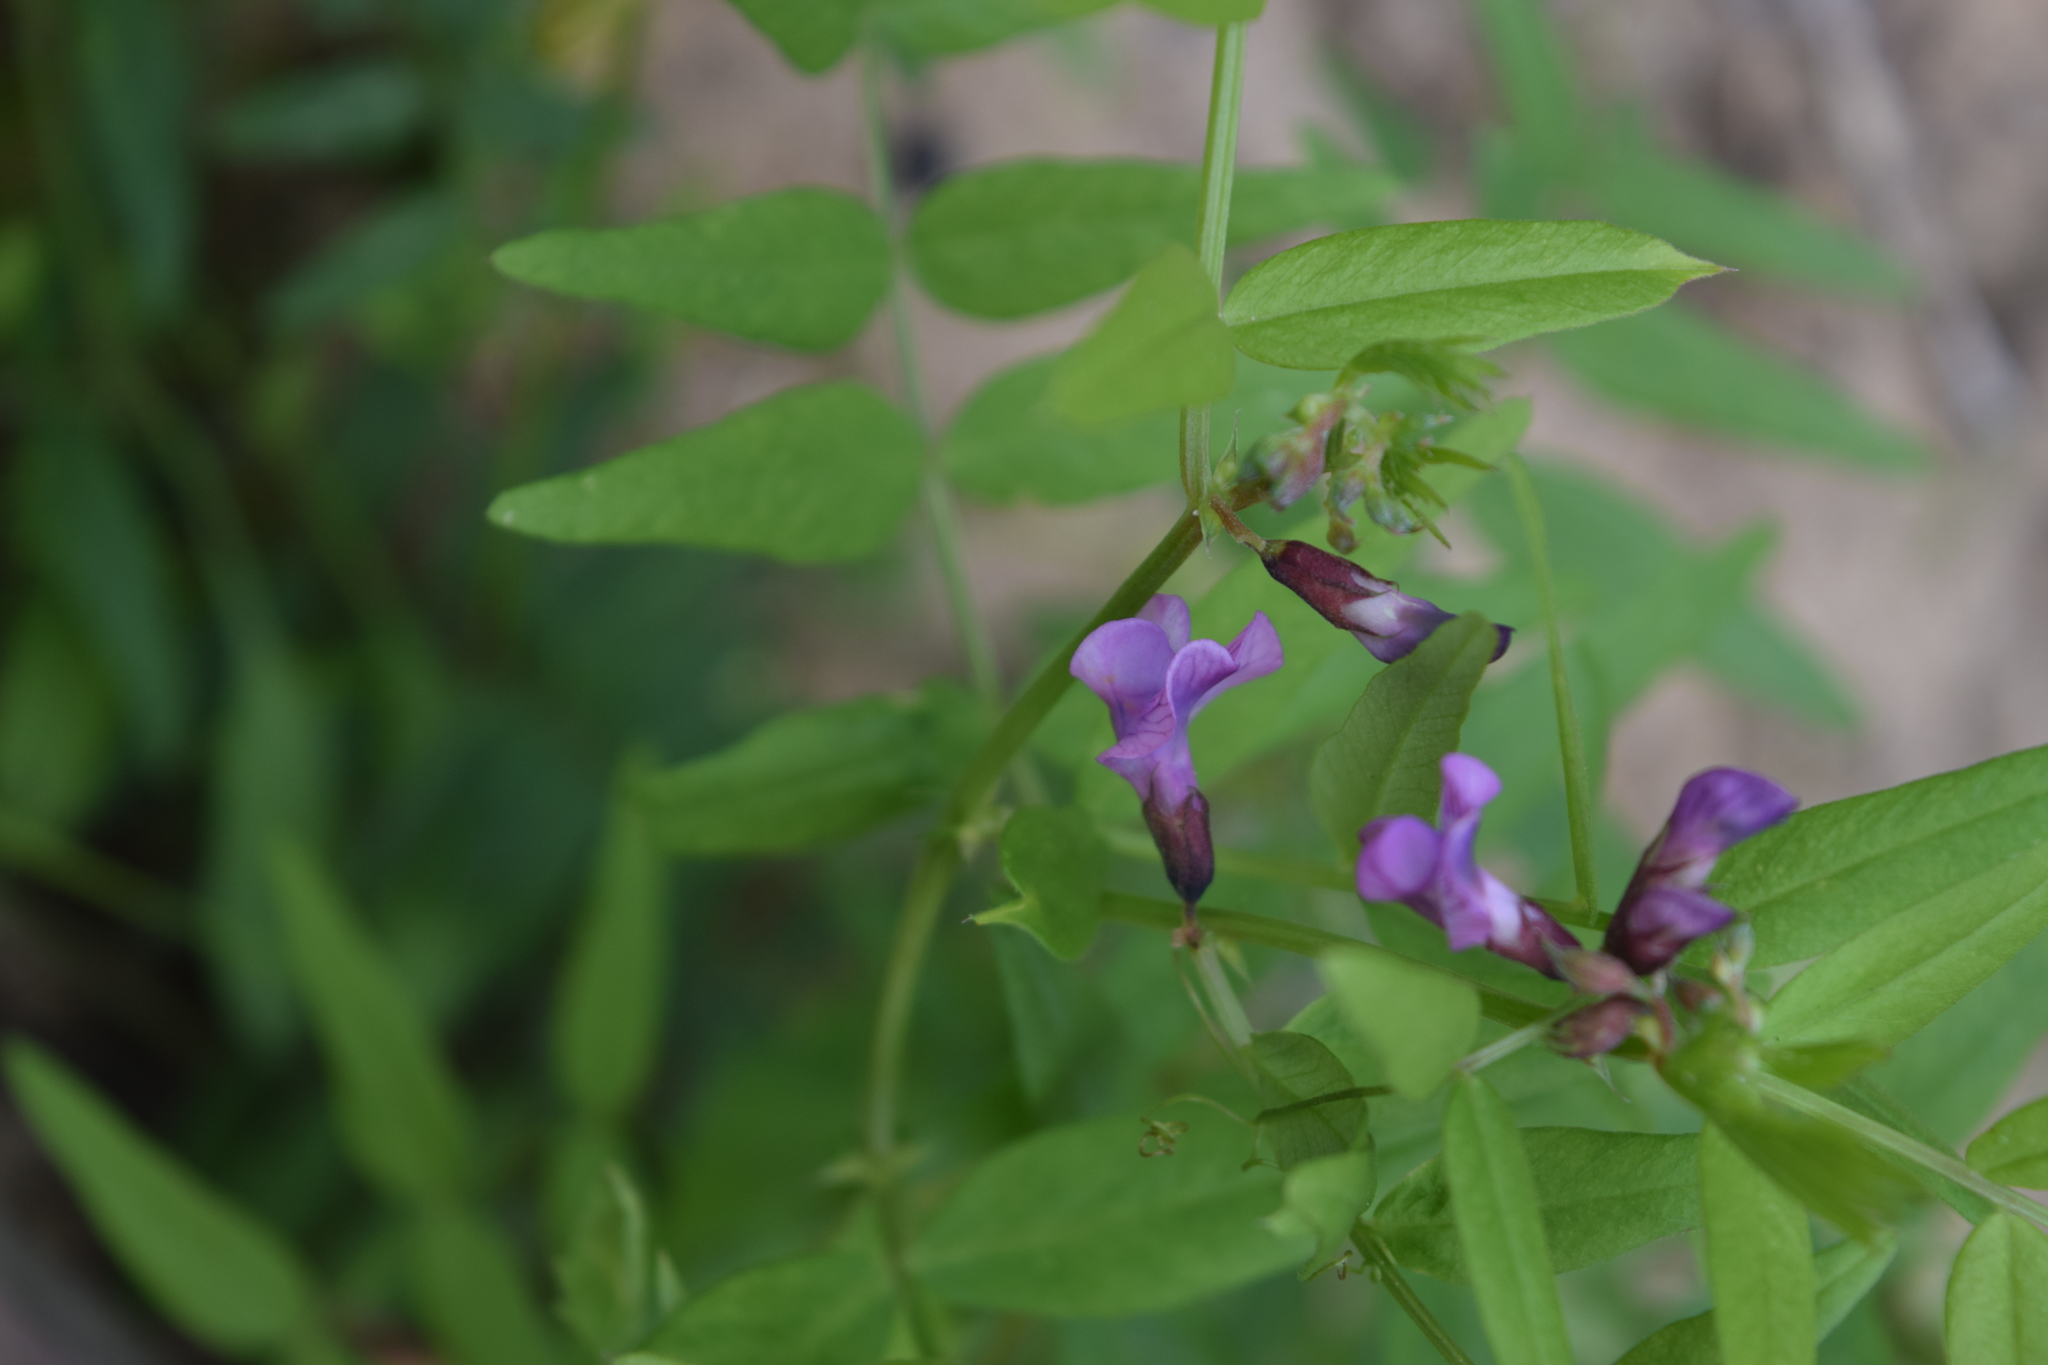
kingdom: Plantae
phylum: Tracheophyta
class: Magnoliopsida
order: Fabales
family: Fabaceae
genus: Vicia
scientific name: Vicia sepium
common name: Bush vetch
